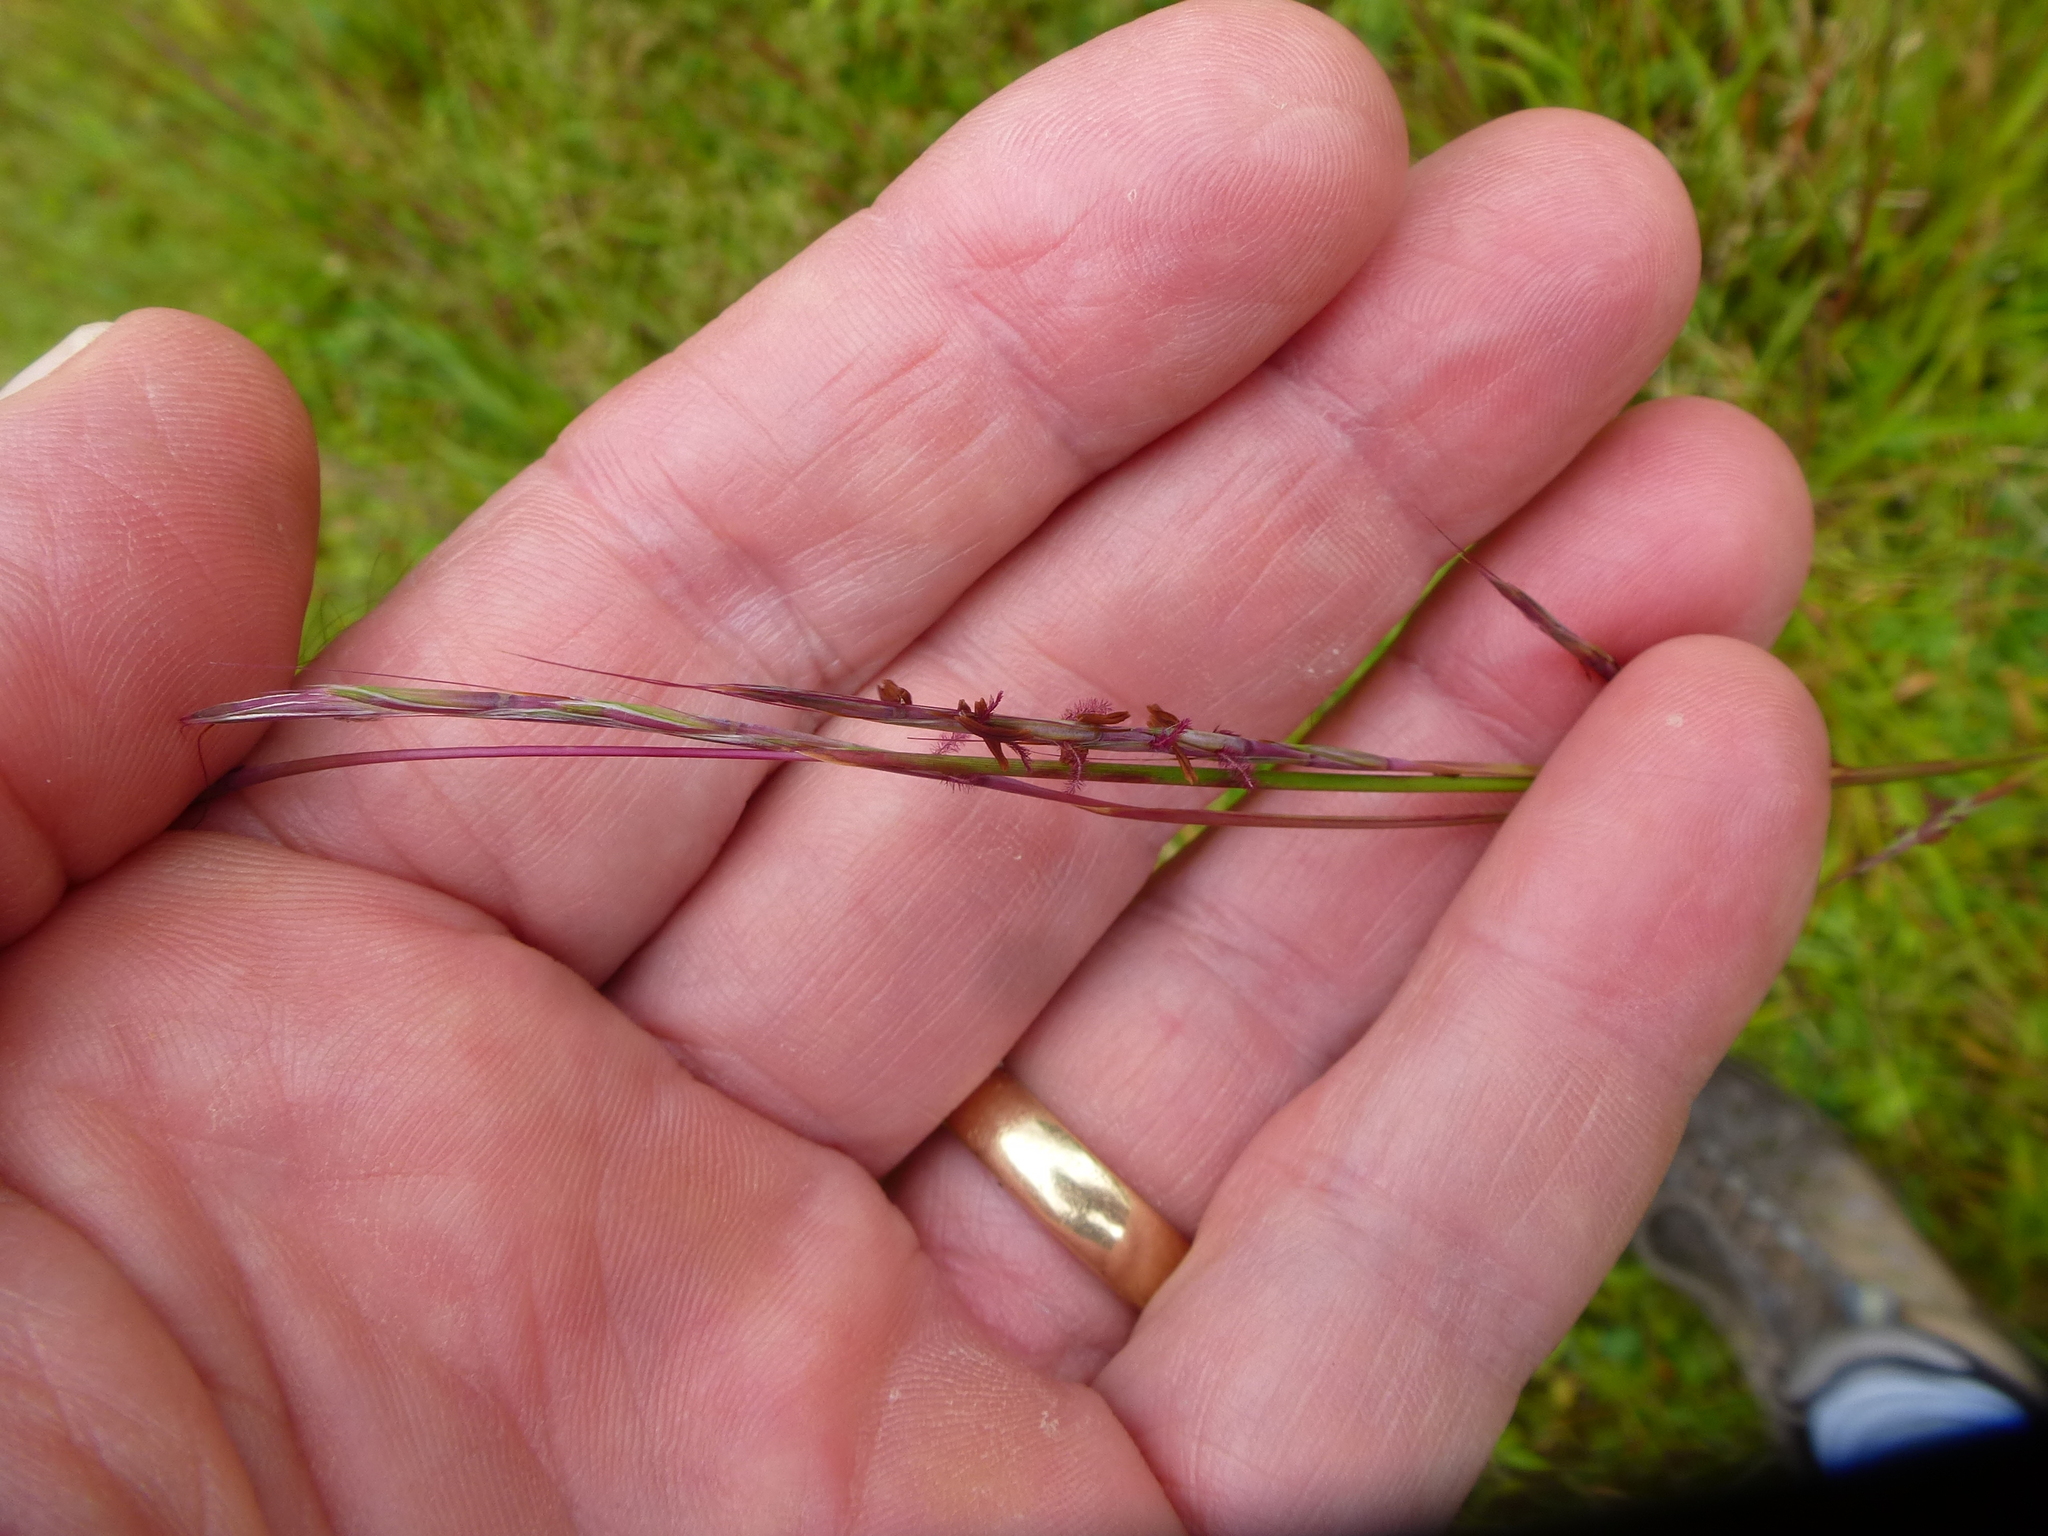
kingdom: Plantae
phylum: Tracheophyta
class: Liliopsida
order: Poales
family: Poaceae
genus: Schizachyrium
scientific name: Schizachyrium scoparium
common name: Little bluestem
